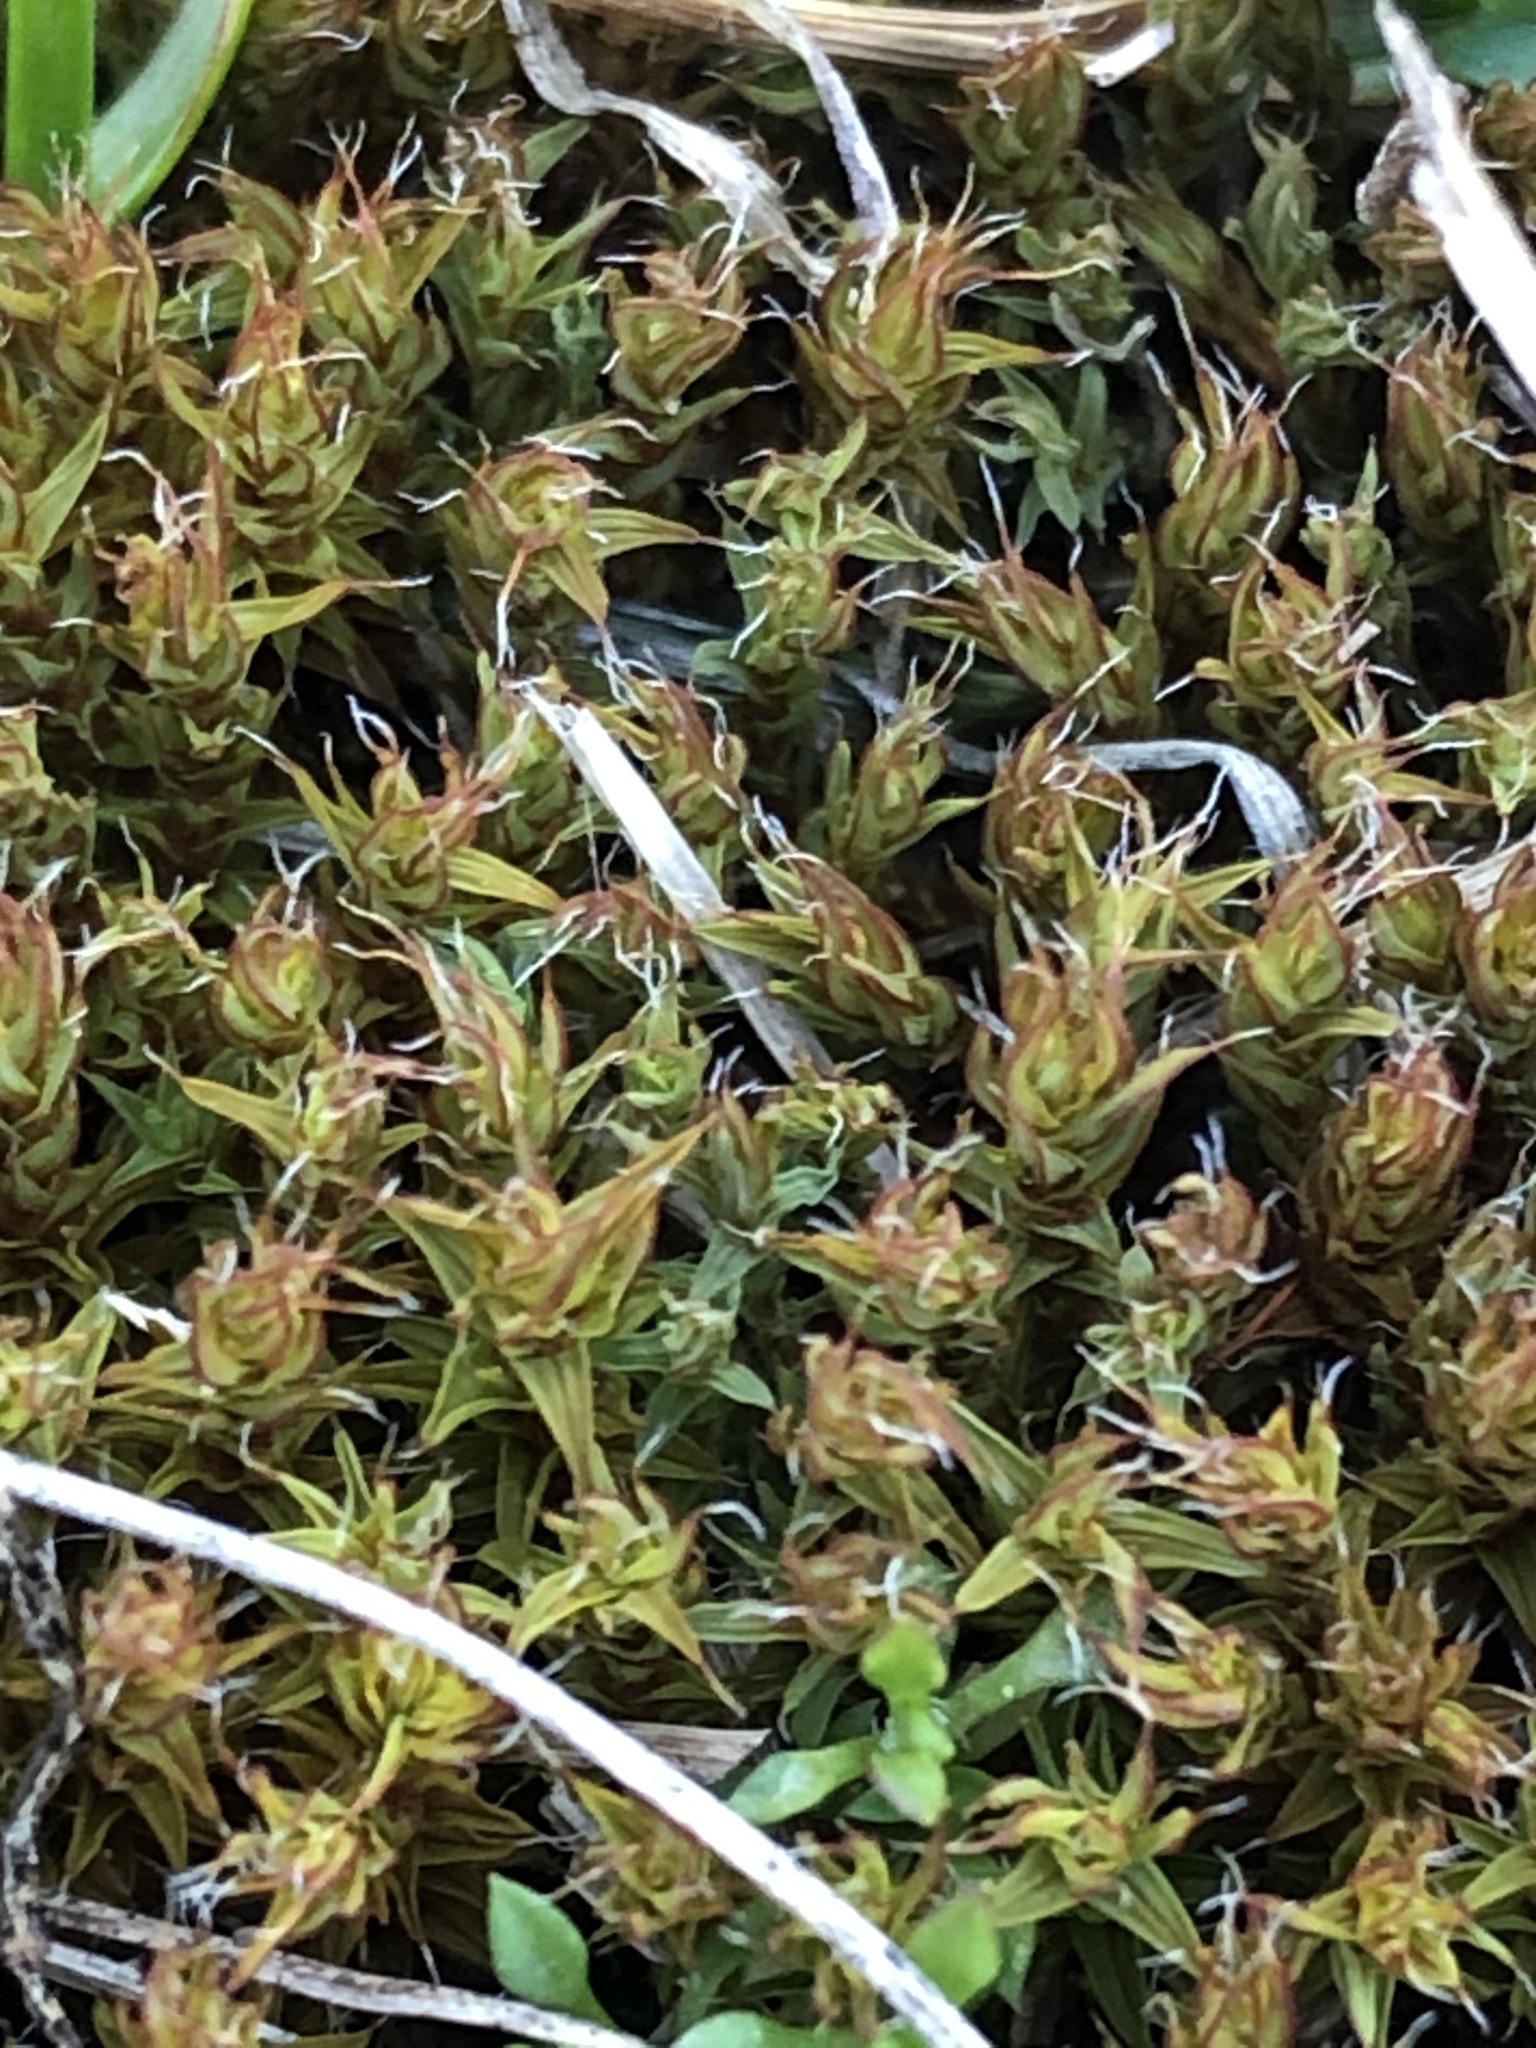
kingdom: Plantae
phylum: Bryophyta
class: Bryopsida
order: Pottiales
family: Pottiaceae
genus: Syntrichia
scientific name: Syntrichia ruralis
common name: Sidewalk screw moss
